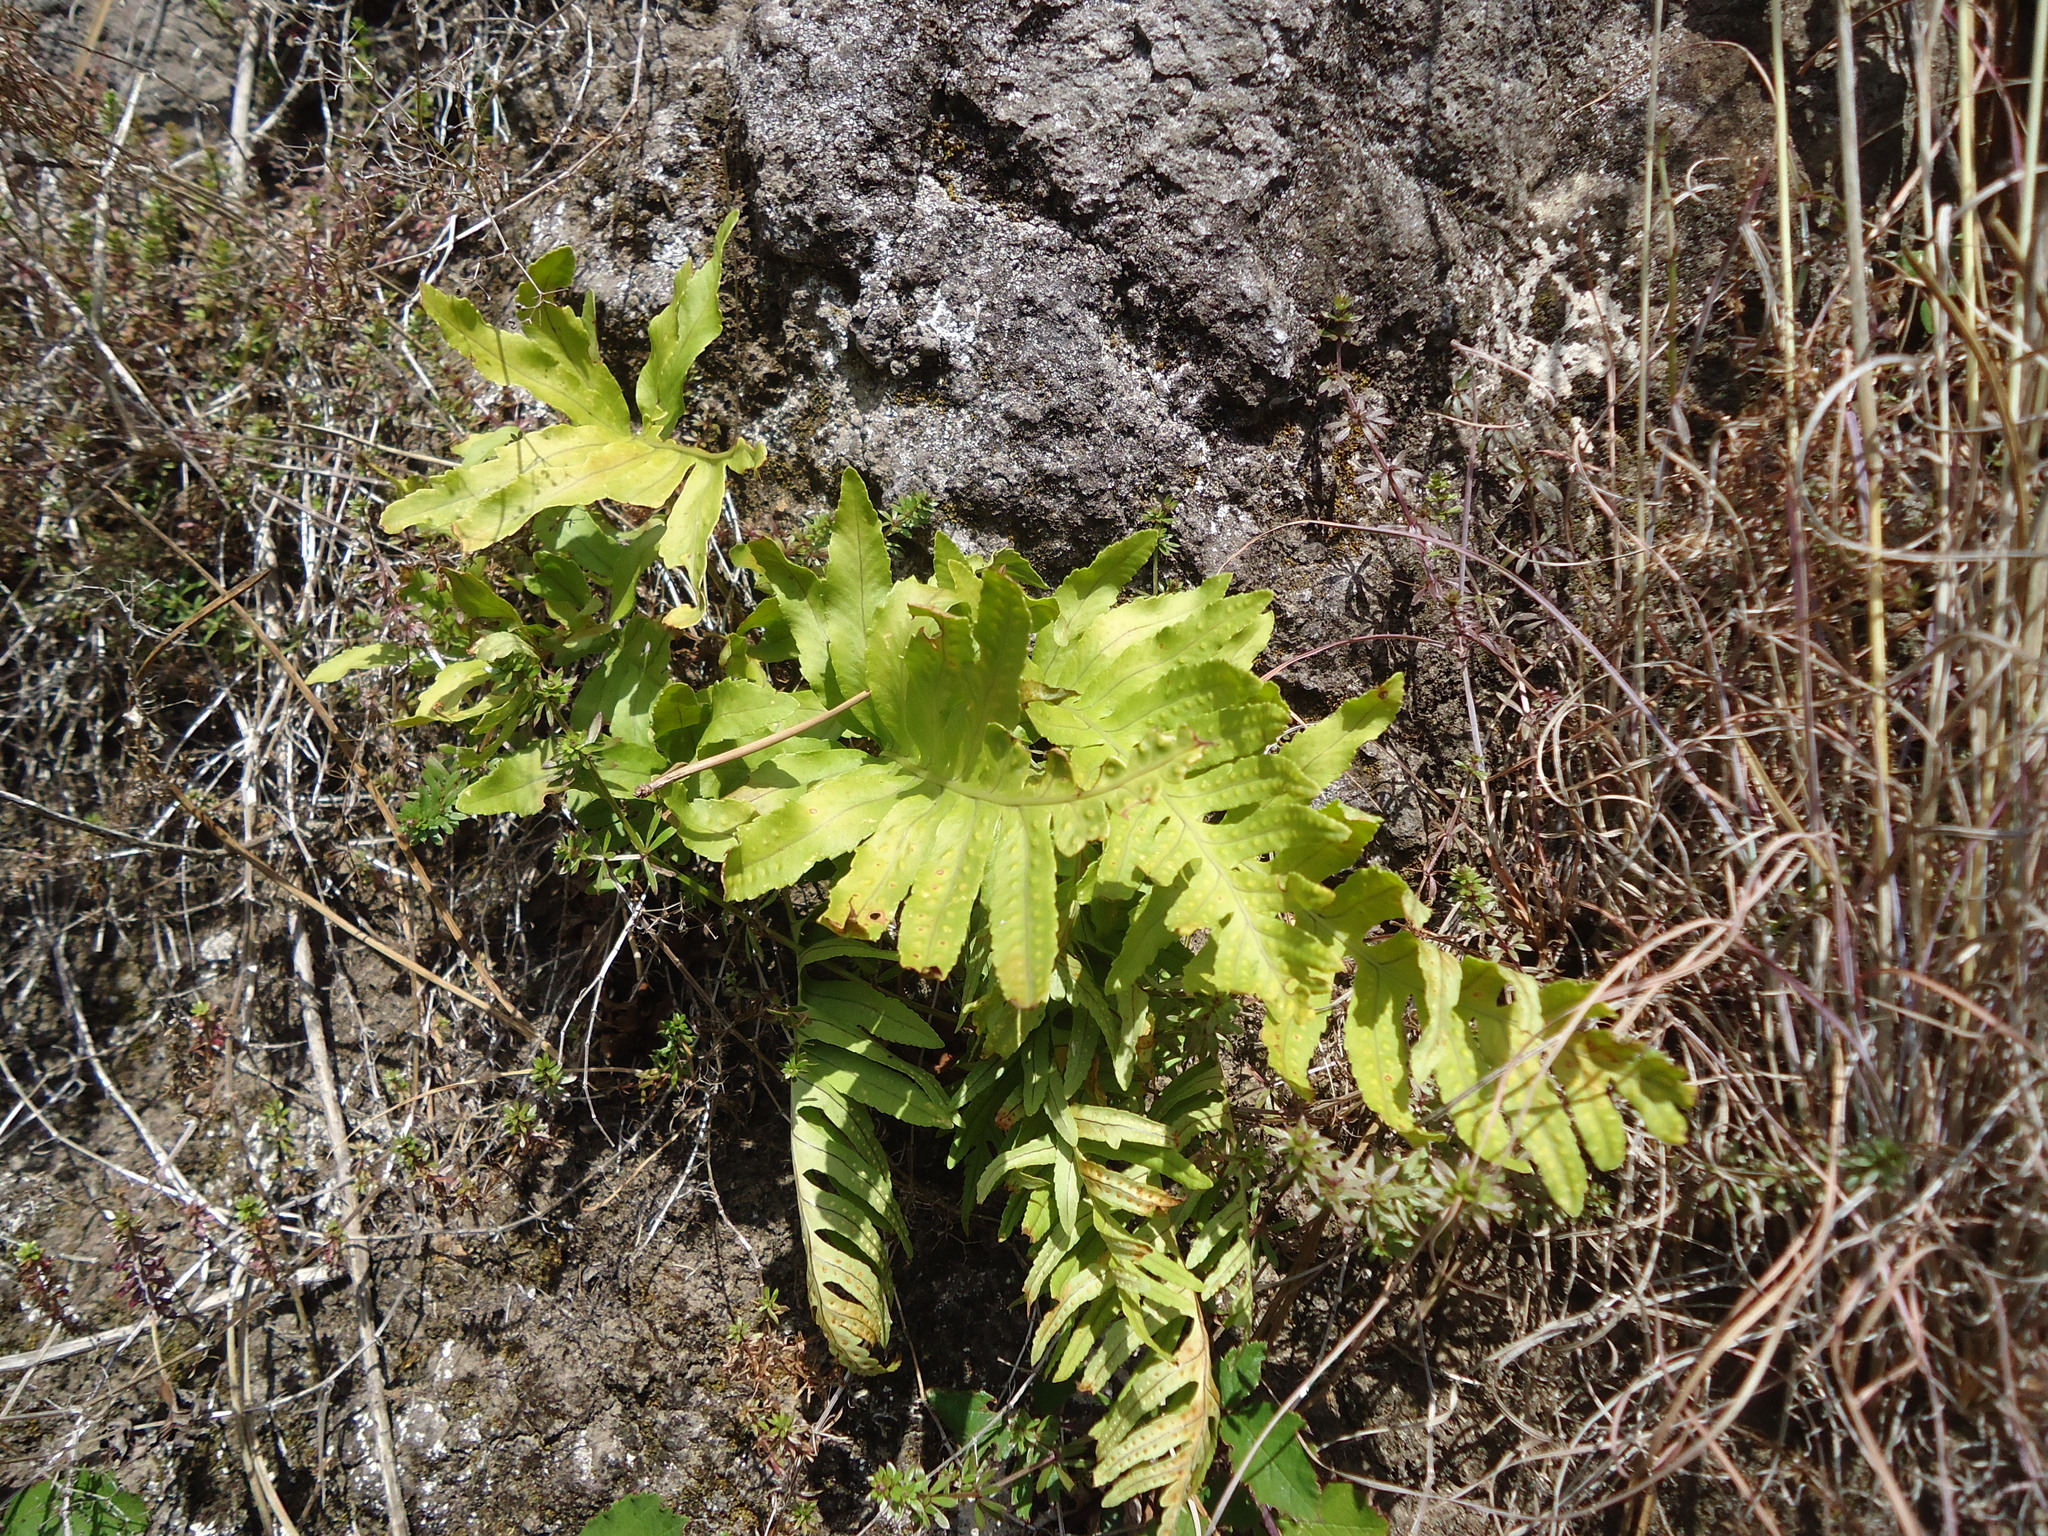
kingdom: Plantae
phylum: Tracheophyta
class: Polypodiopsida
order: Polypodiales
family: Polypodiaceae
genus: Polypodium
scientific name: Polypodium macaronesicum
